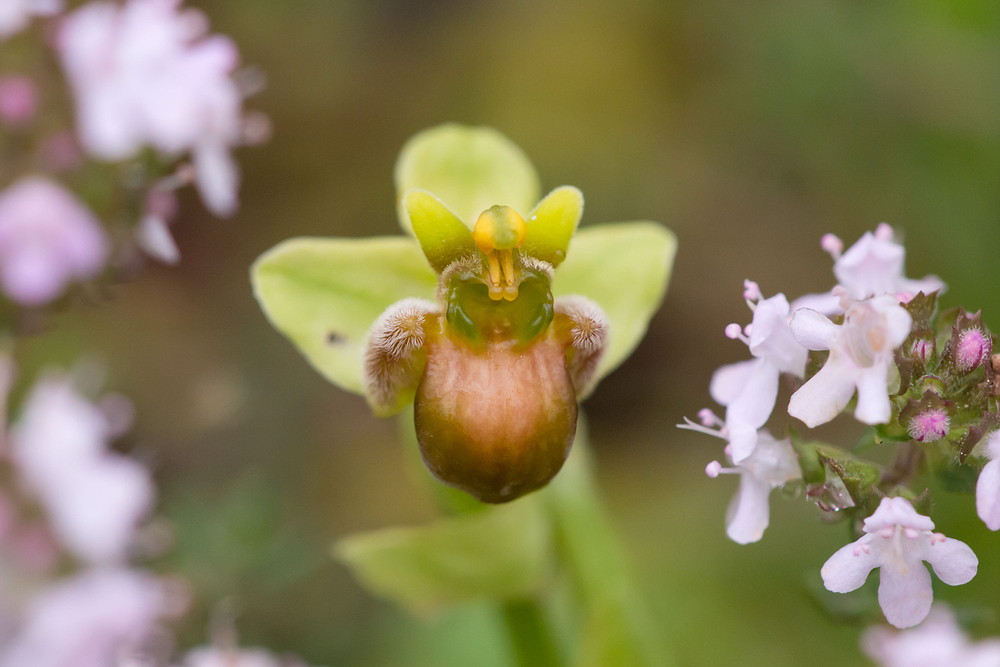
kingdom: Plantae
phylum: Tracheophyta
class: Liliopsida
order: Asparagales
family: Orchidaceae
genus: Ophrys
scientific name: Ophrys bombyliflora
